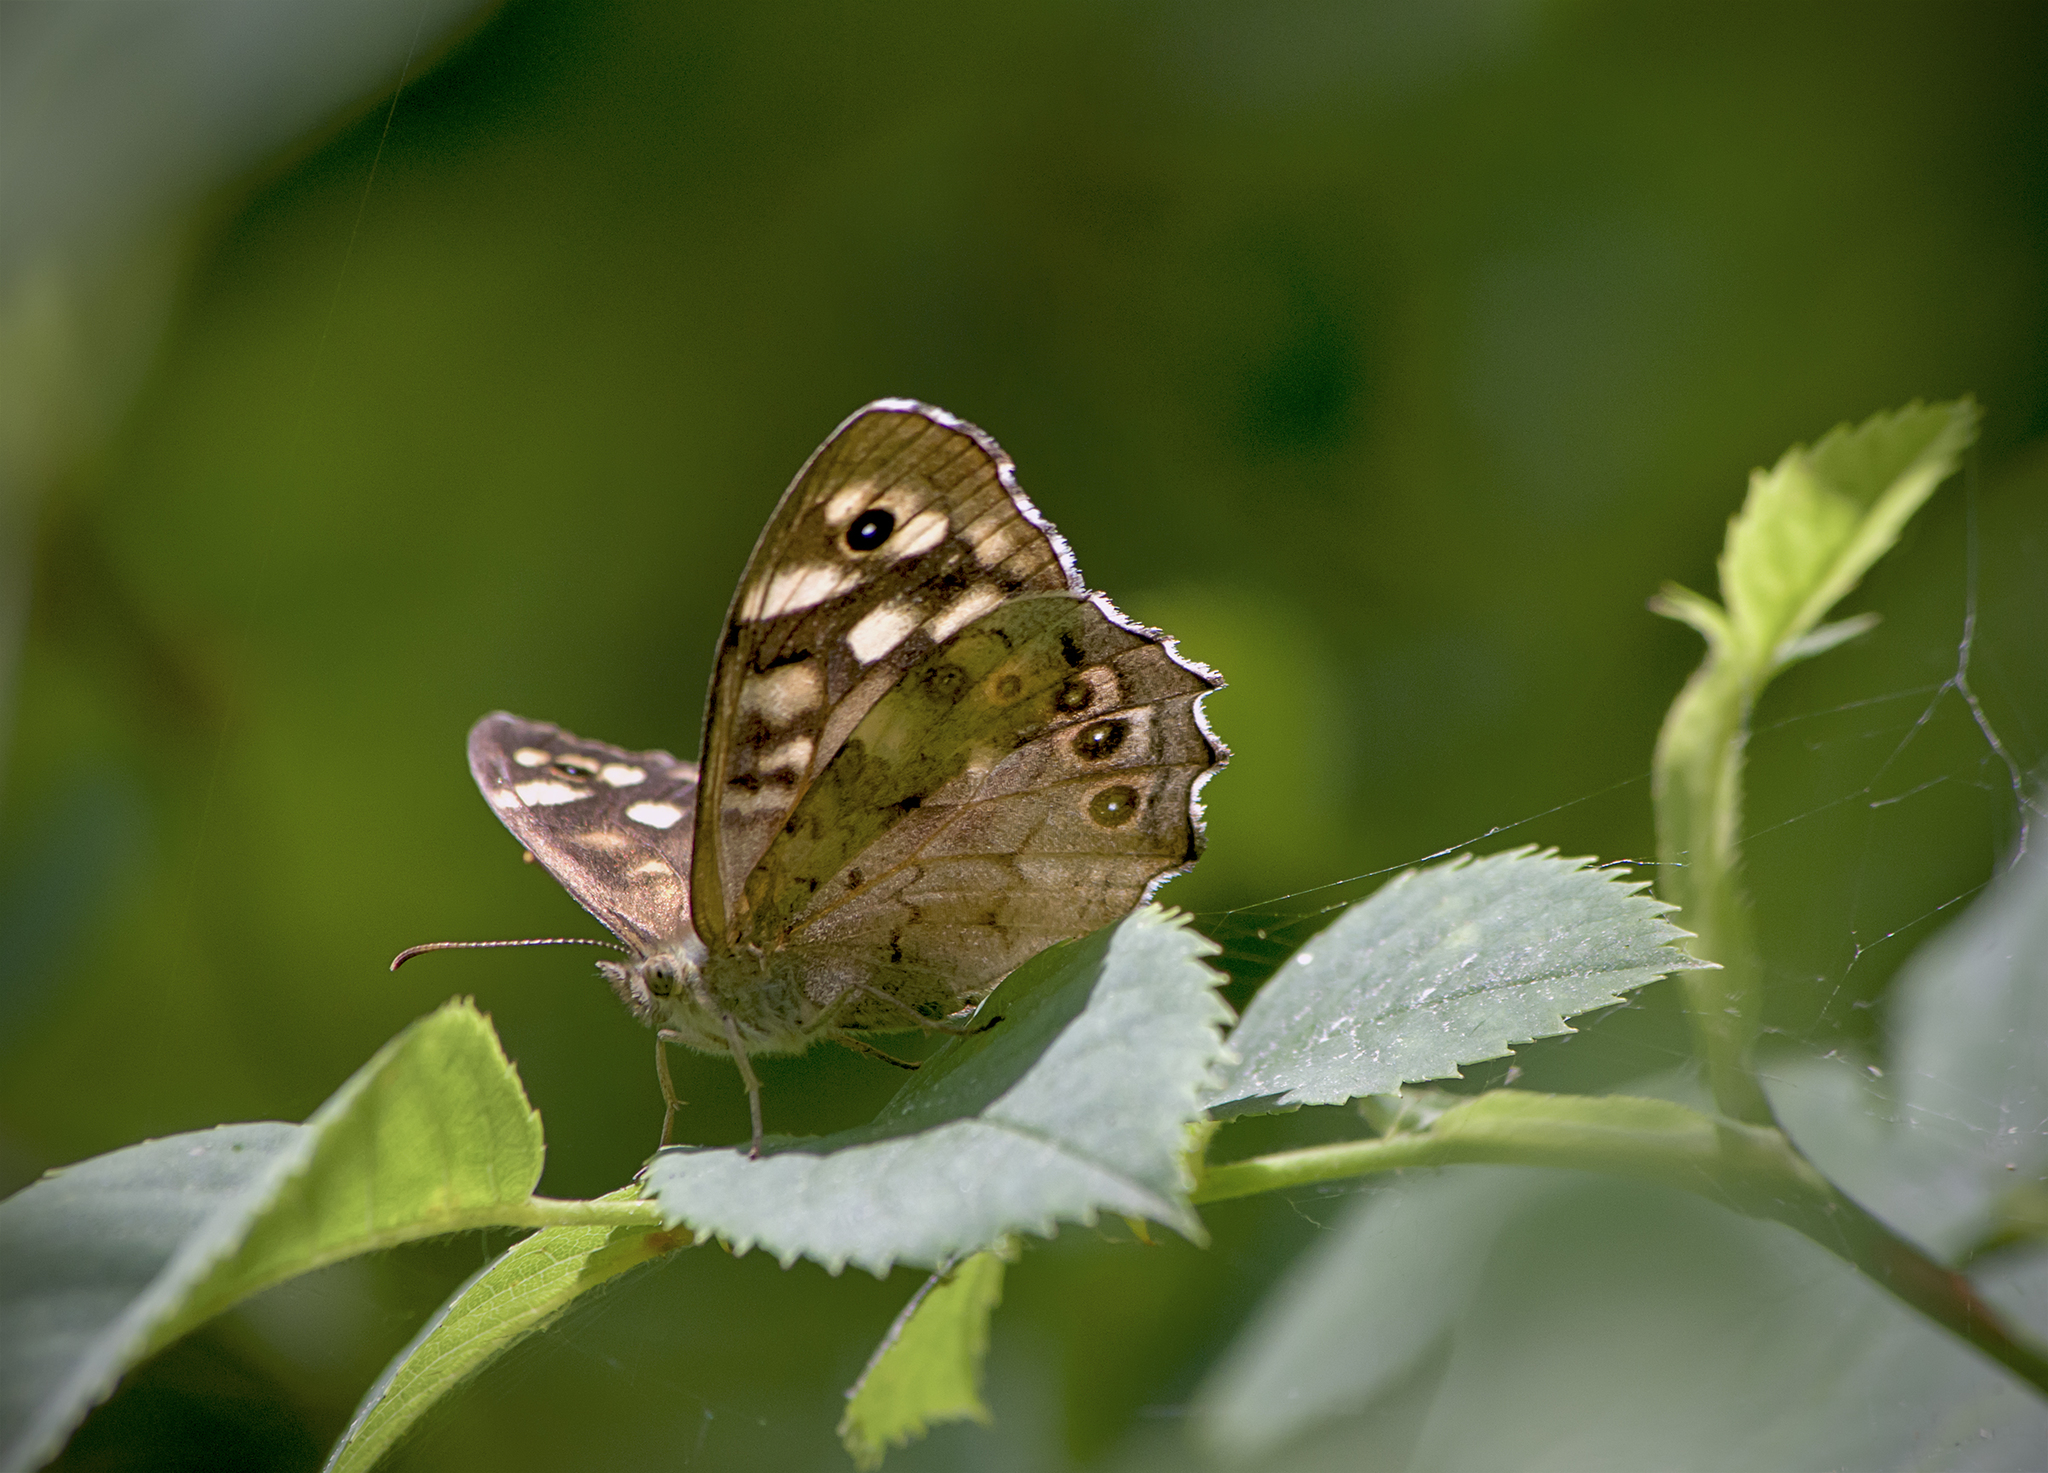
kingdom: Animalia
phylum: Arthropoda
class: Insecta
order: Lepidoptera
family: Nymphalidae
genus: Pararge
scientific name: Pararge aegeria
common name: Speckled wood
